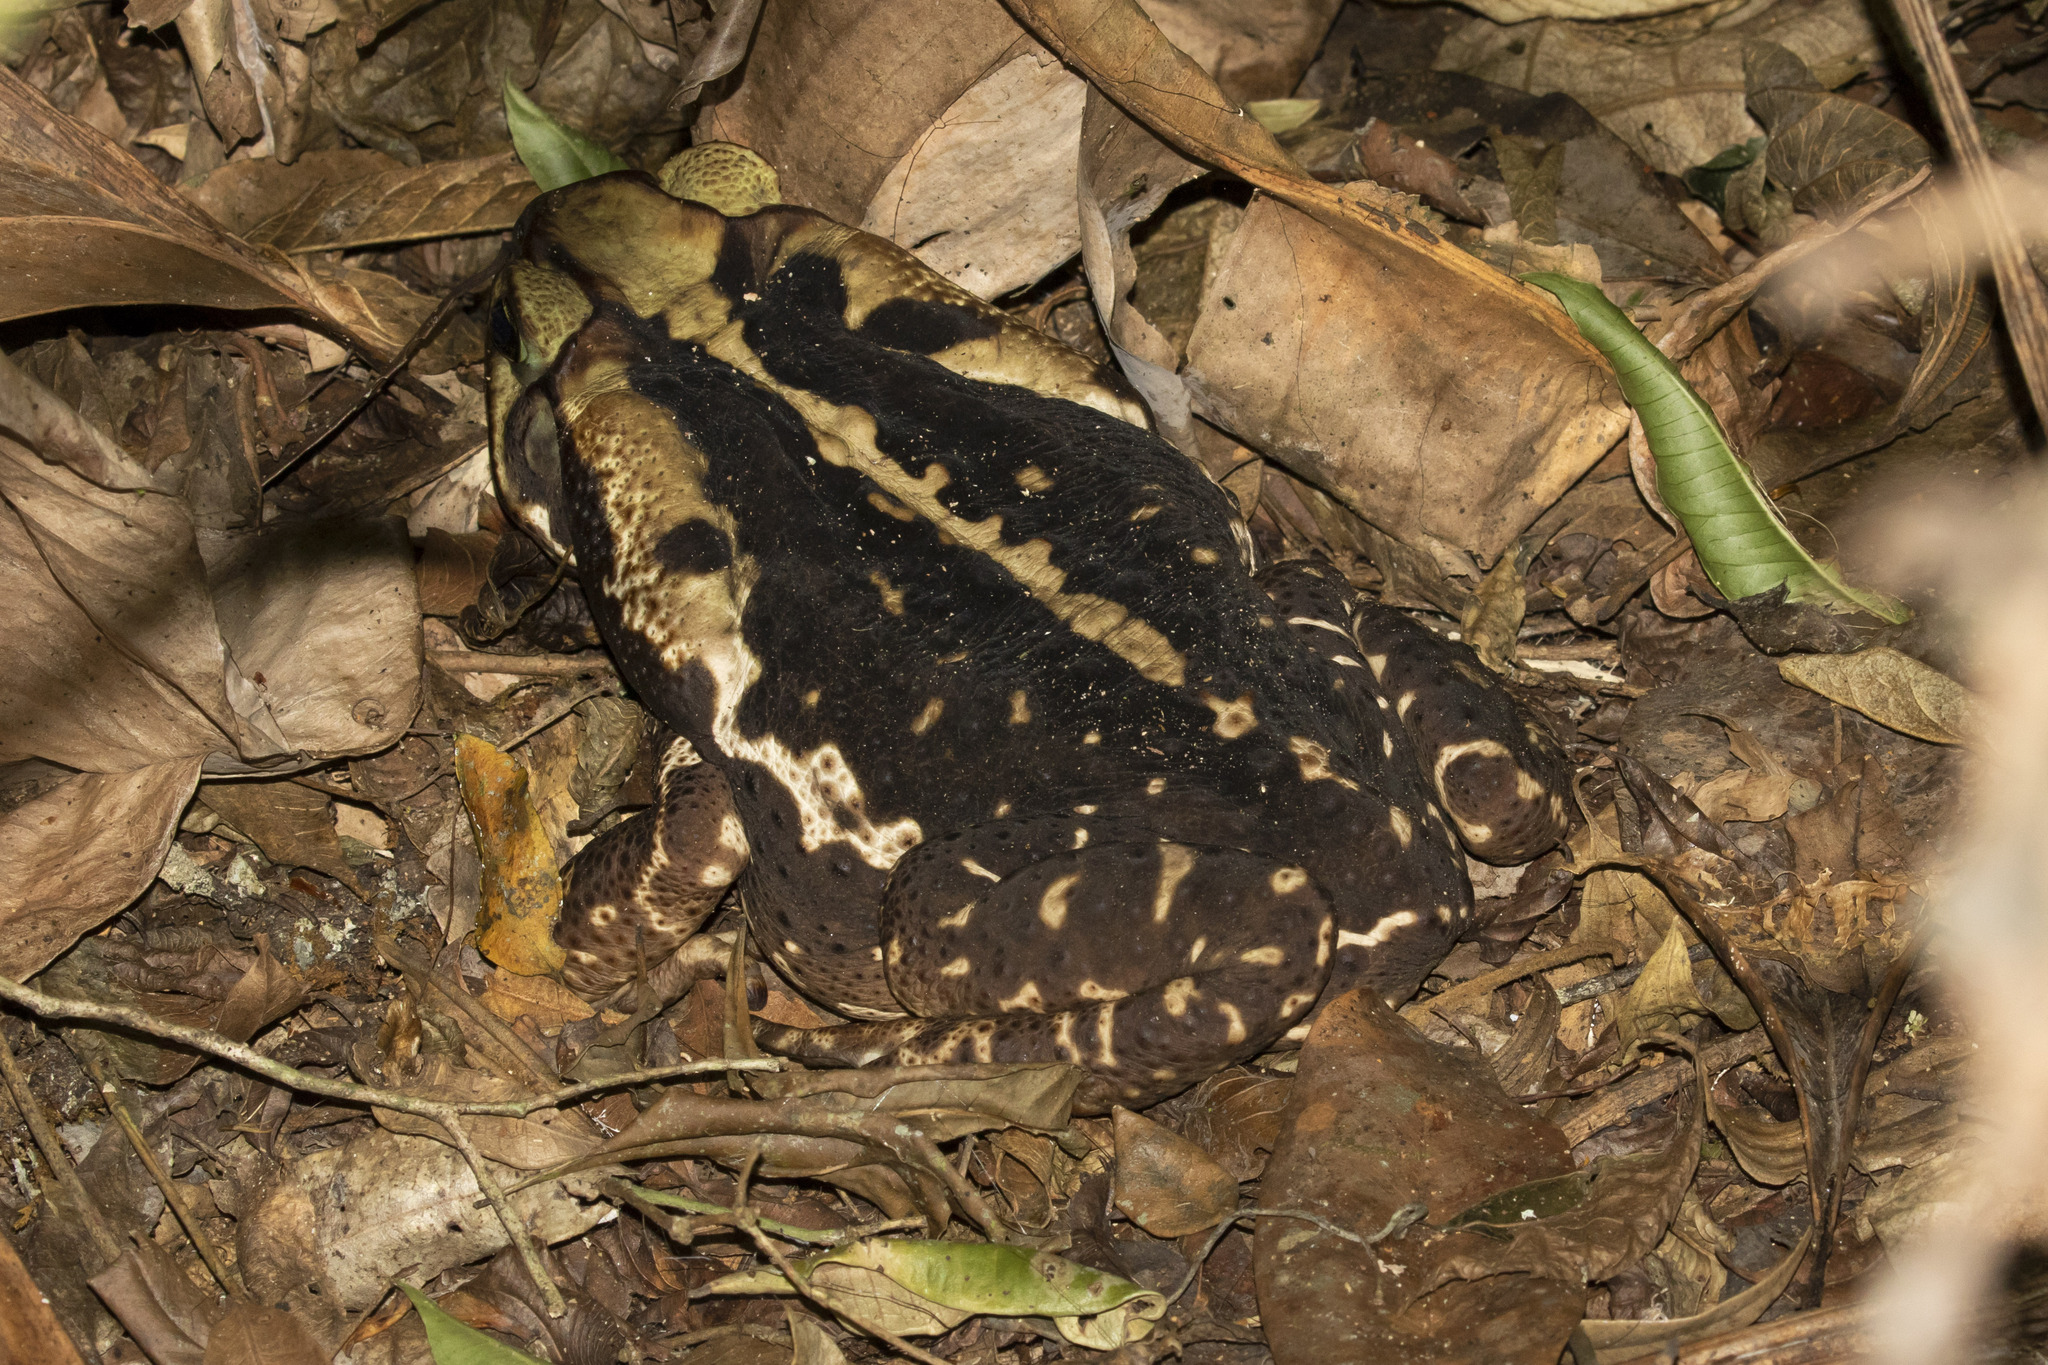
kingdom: Animalia
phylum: Chordata
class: Amphibia
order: Anura
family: Bufonidae
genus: Rhinella
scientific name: Rhinella icterica
